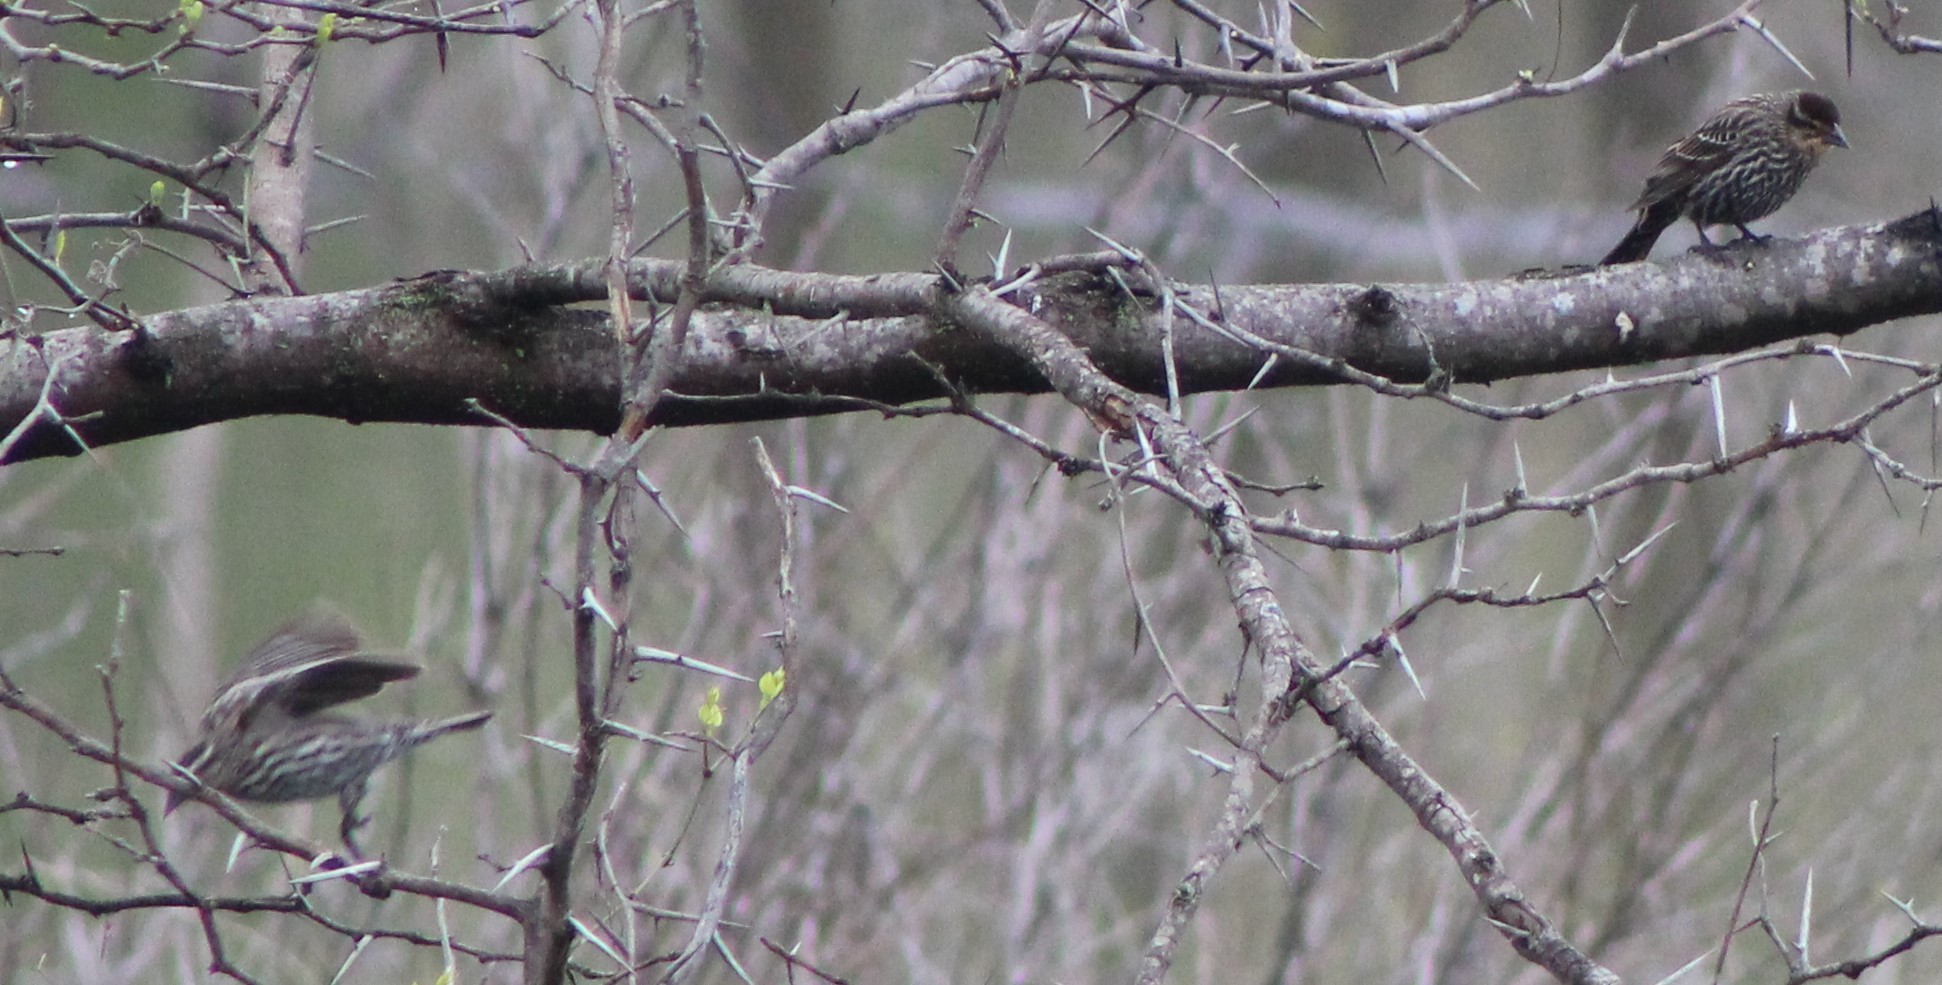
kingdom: Animalia
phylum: Chordata
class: Aves
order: Passeriformes
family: Icteridae
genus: Agelaius
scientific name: Agelaius phoeniceus
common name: Red-winged blackbird
